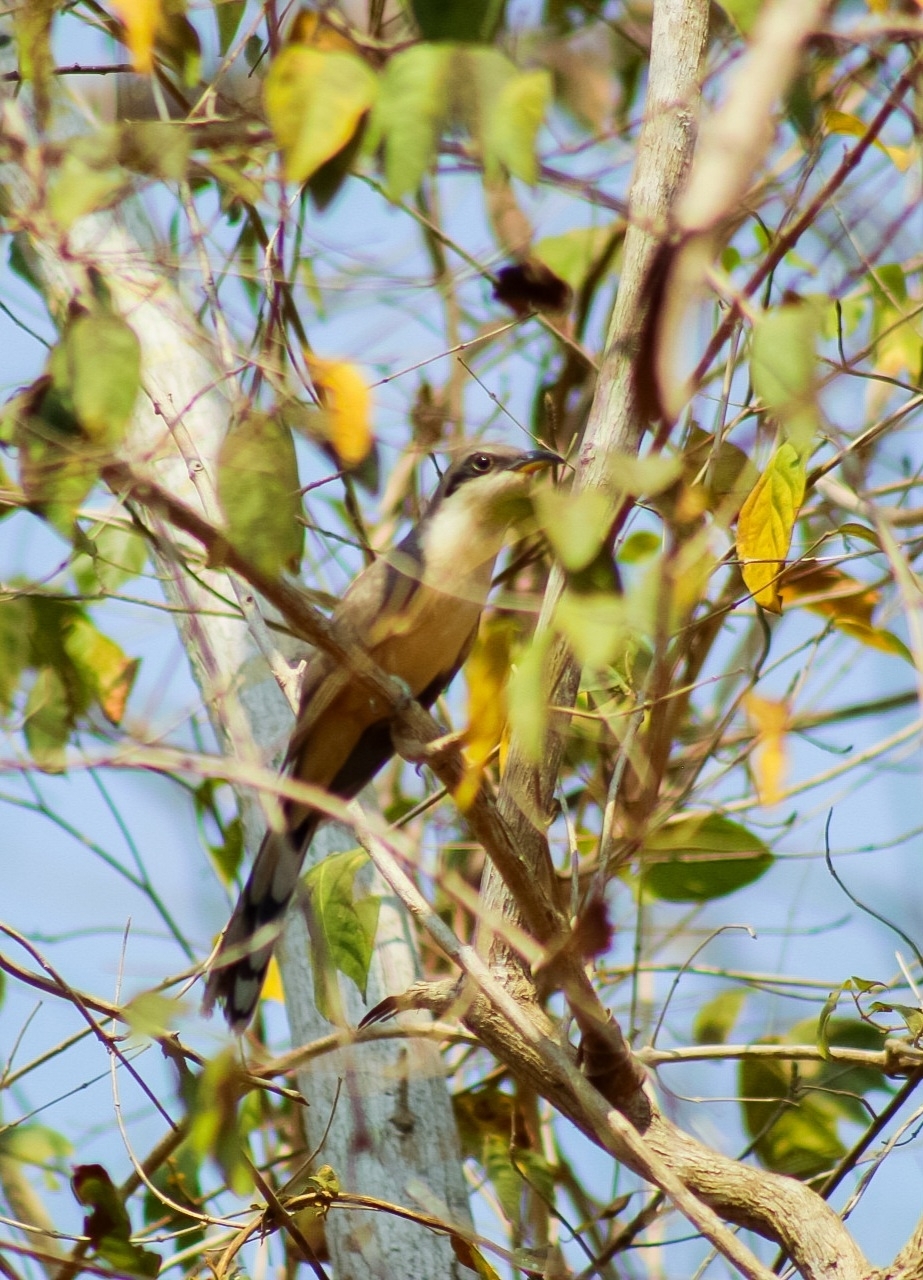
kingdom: Animalia
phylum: Chordata
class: Aves
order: Cuculiformes
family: Cuculidae
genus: Coccyzus
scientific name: Coccyzus minor
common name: Mangrove cuckoo
